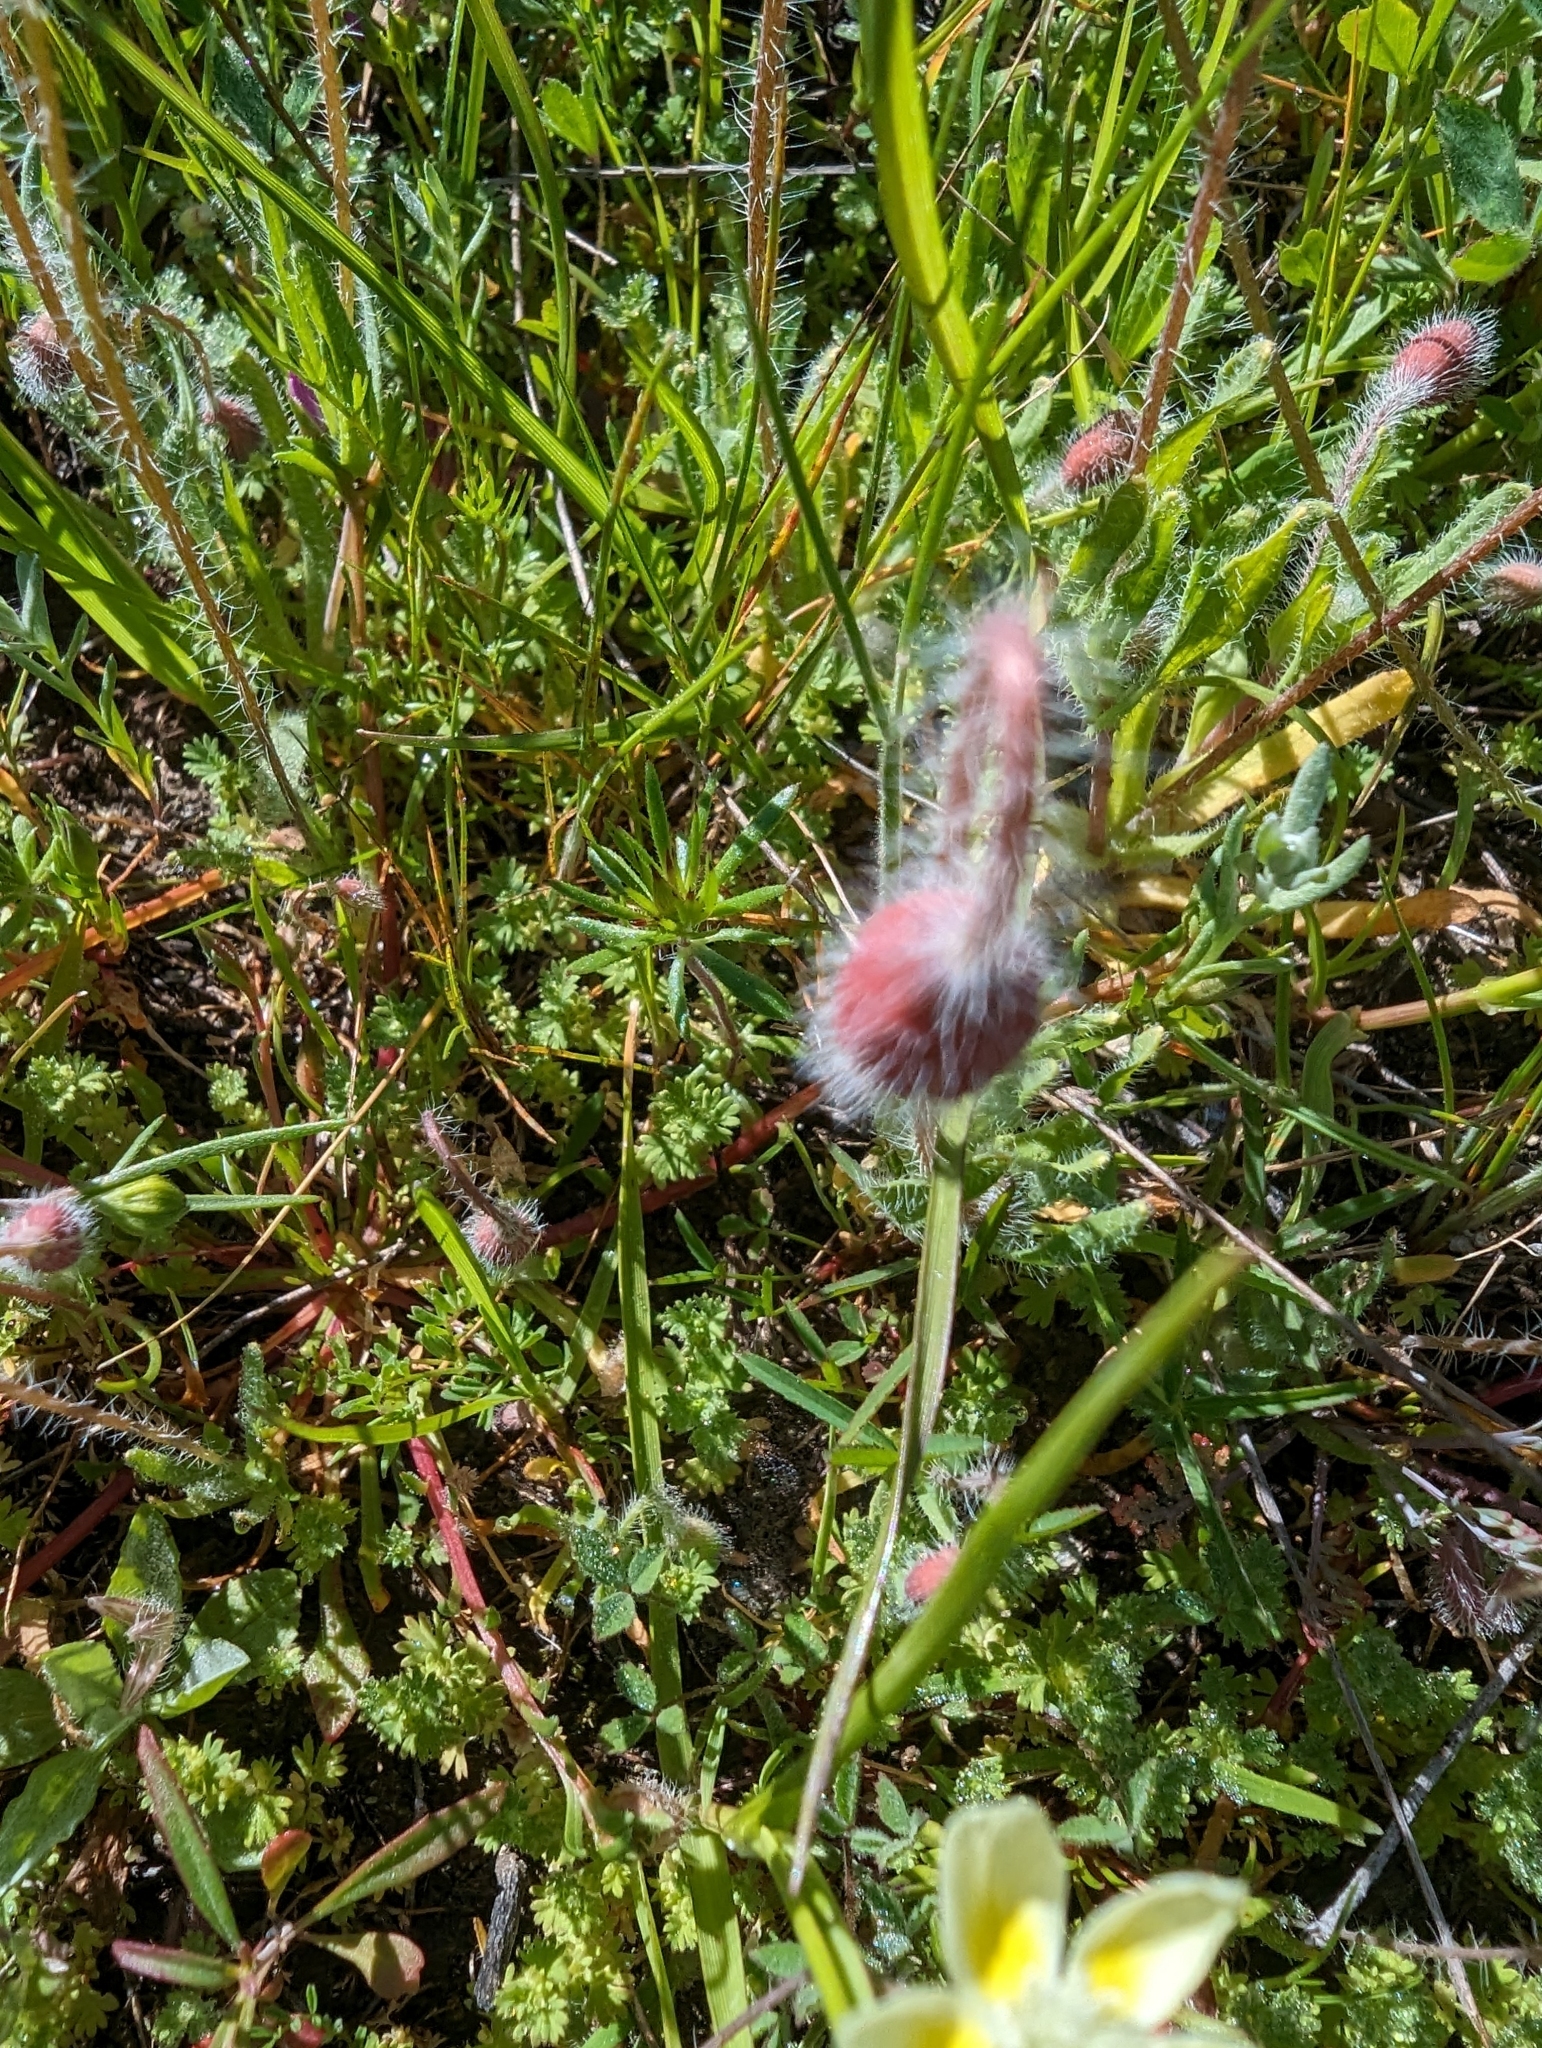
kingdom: Plantae
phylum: Tracheophyta
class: Magnoliopsida
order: Ranunculales
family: Papaveraceae
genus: Platystemon
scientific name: Platystemon californicus
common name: Cream-cups
